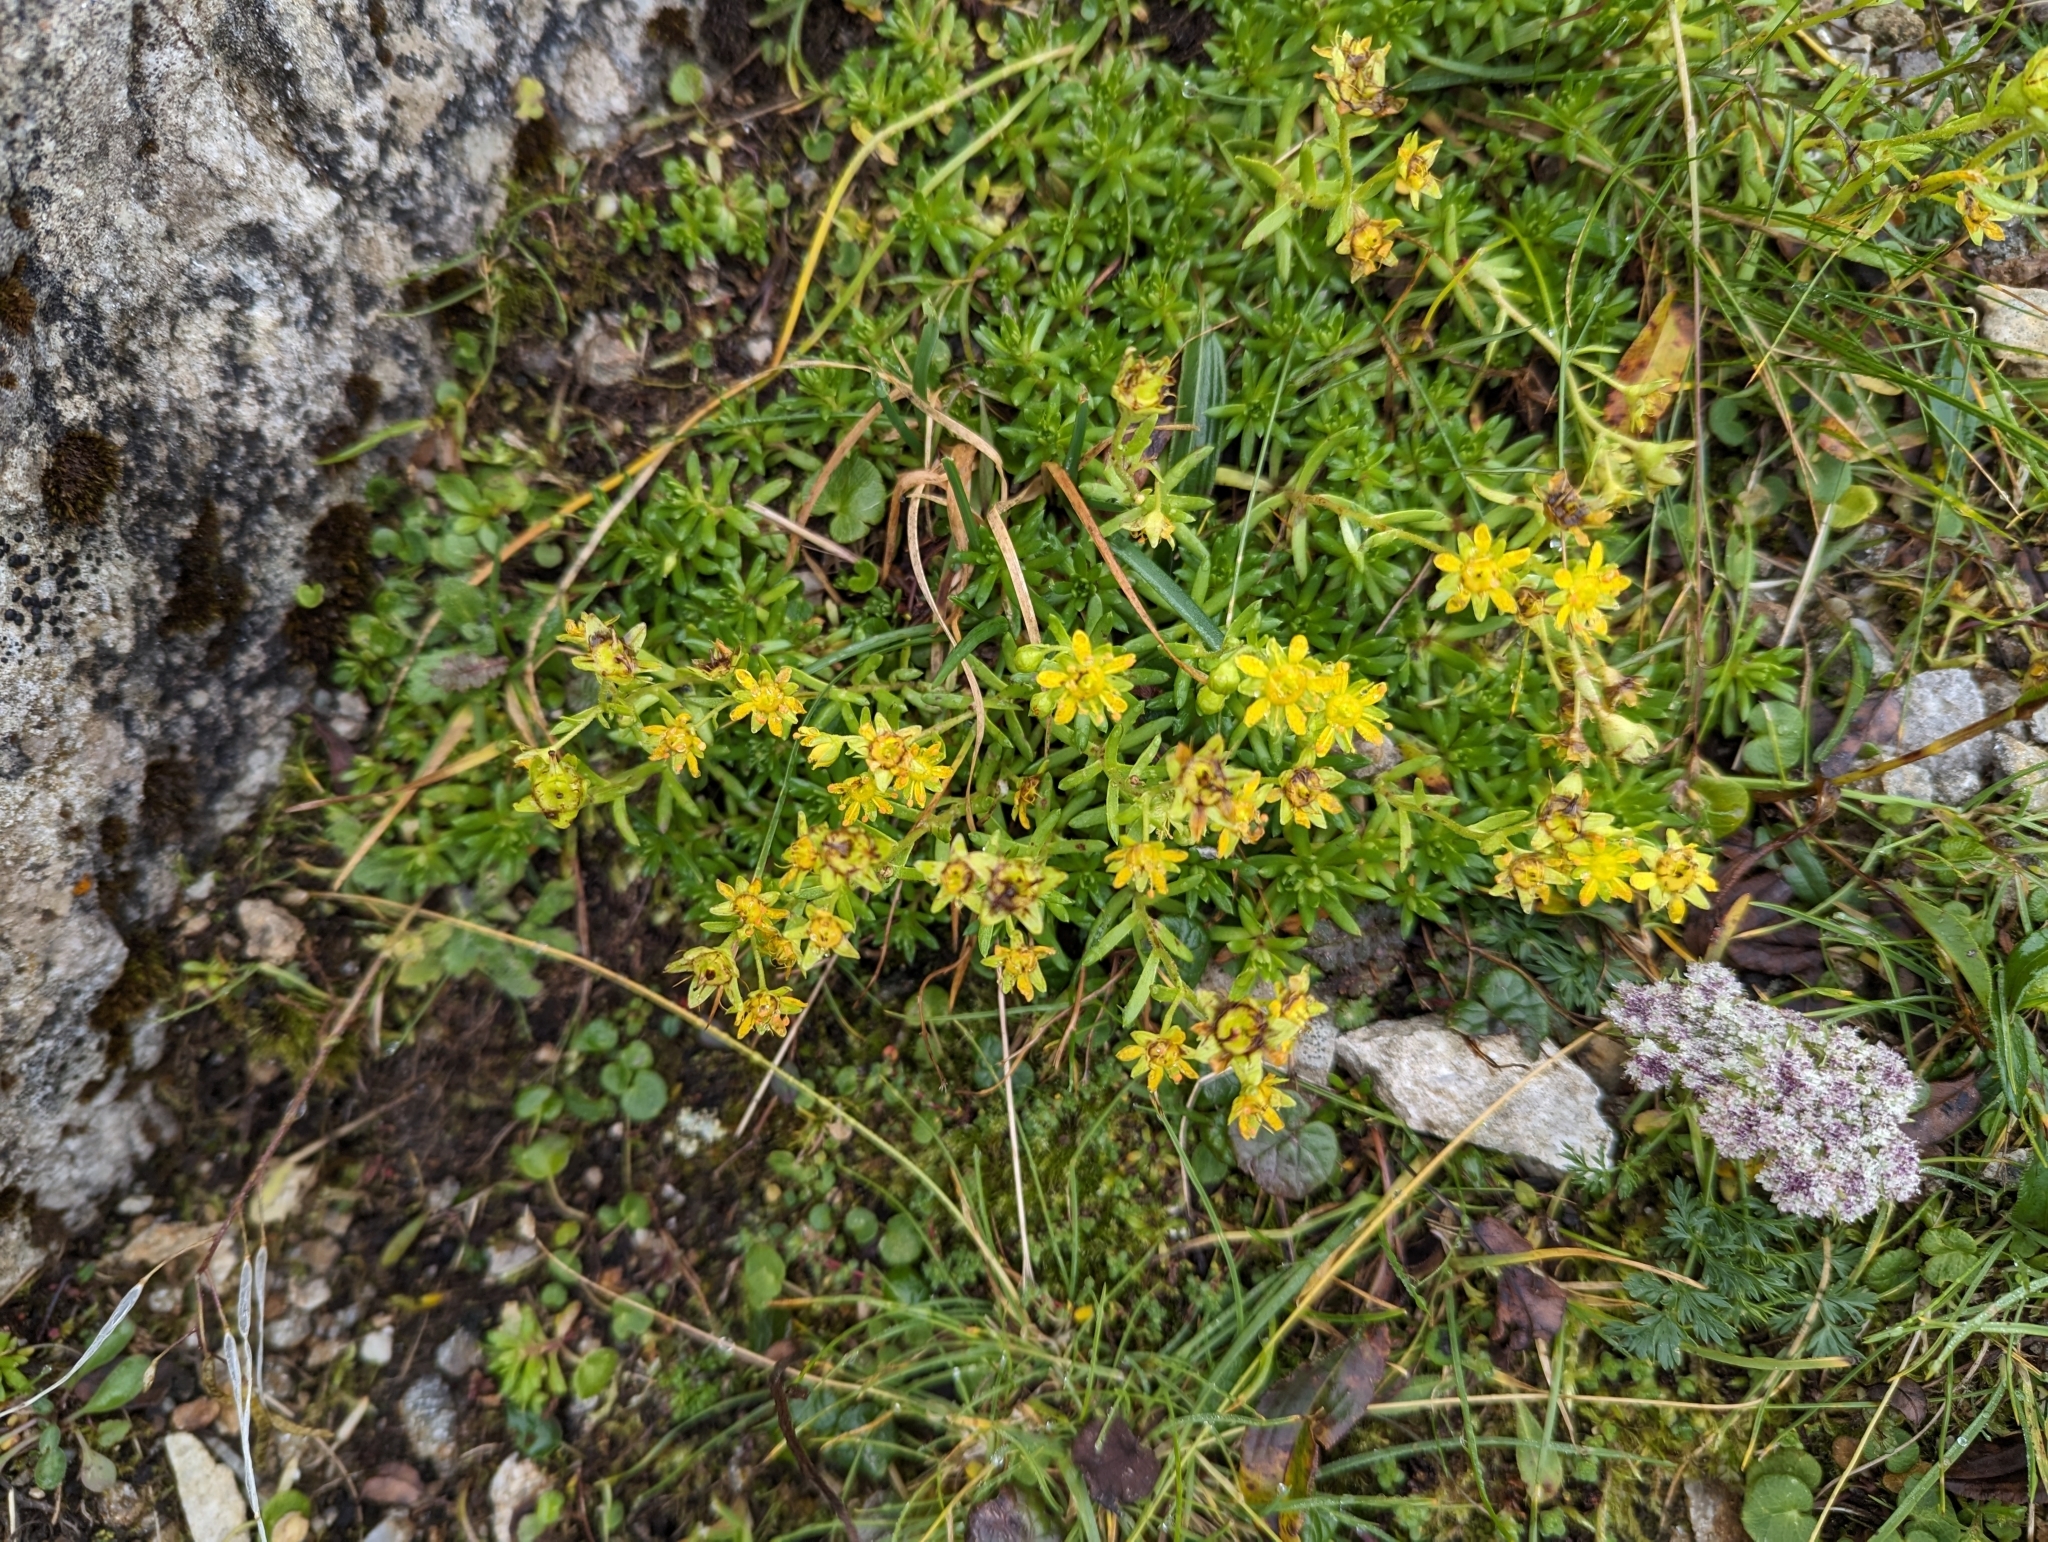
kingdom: Plantae
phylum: Tracheophyta
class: Magnoliopsida
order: Saxifragales
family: Saxifragaceae
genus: Saxifraga
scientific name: Saxifraga aizoides
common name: Yellow mountain saxifrage
